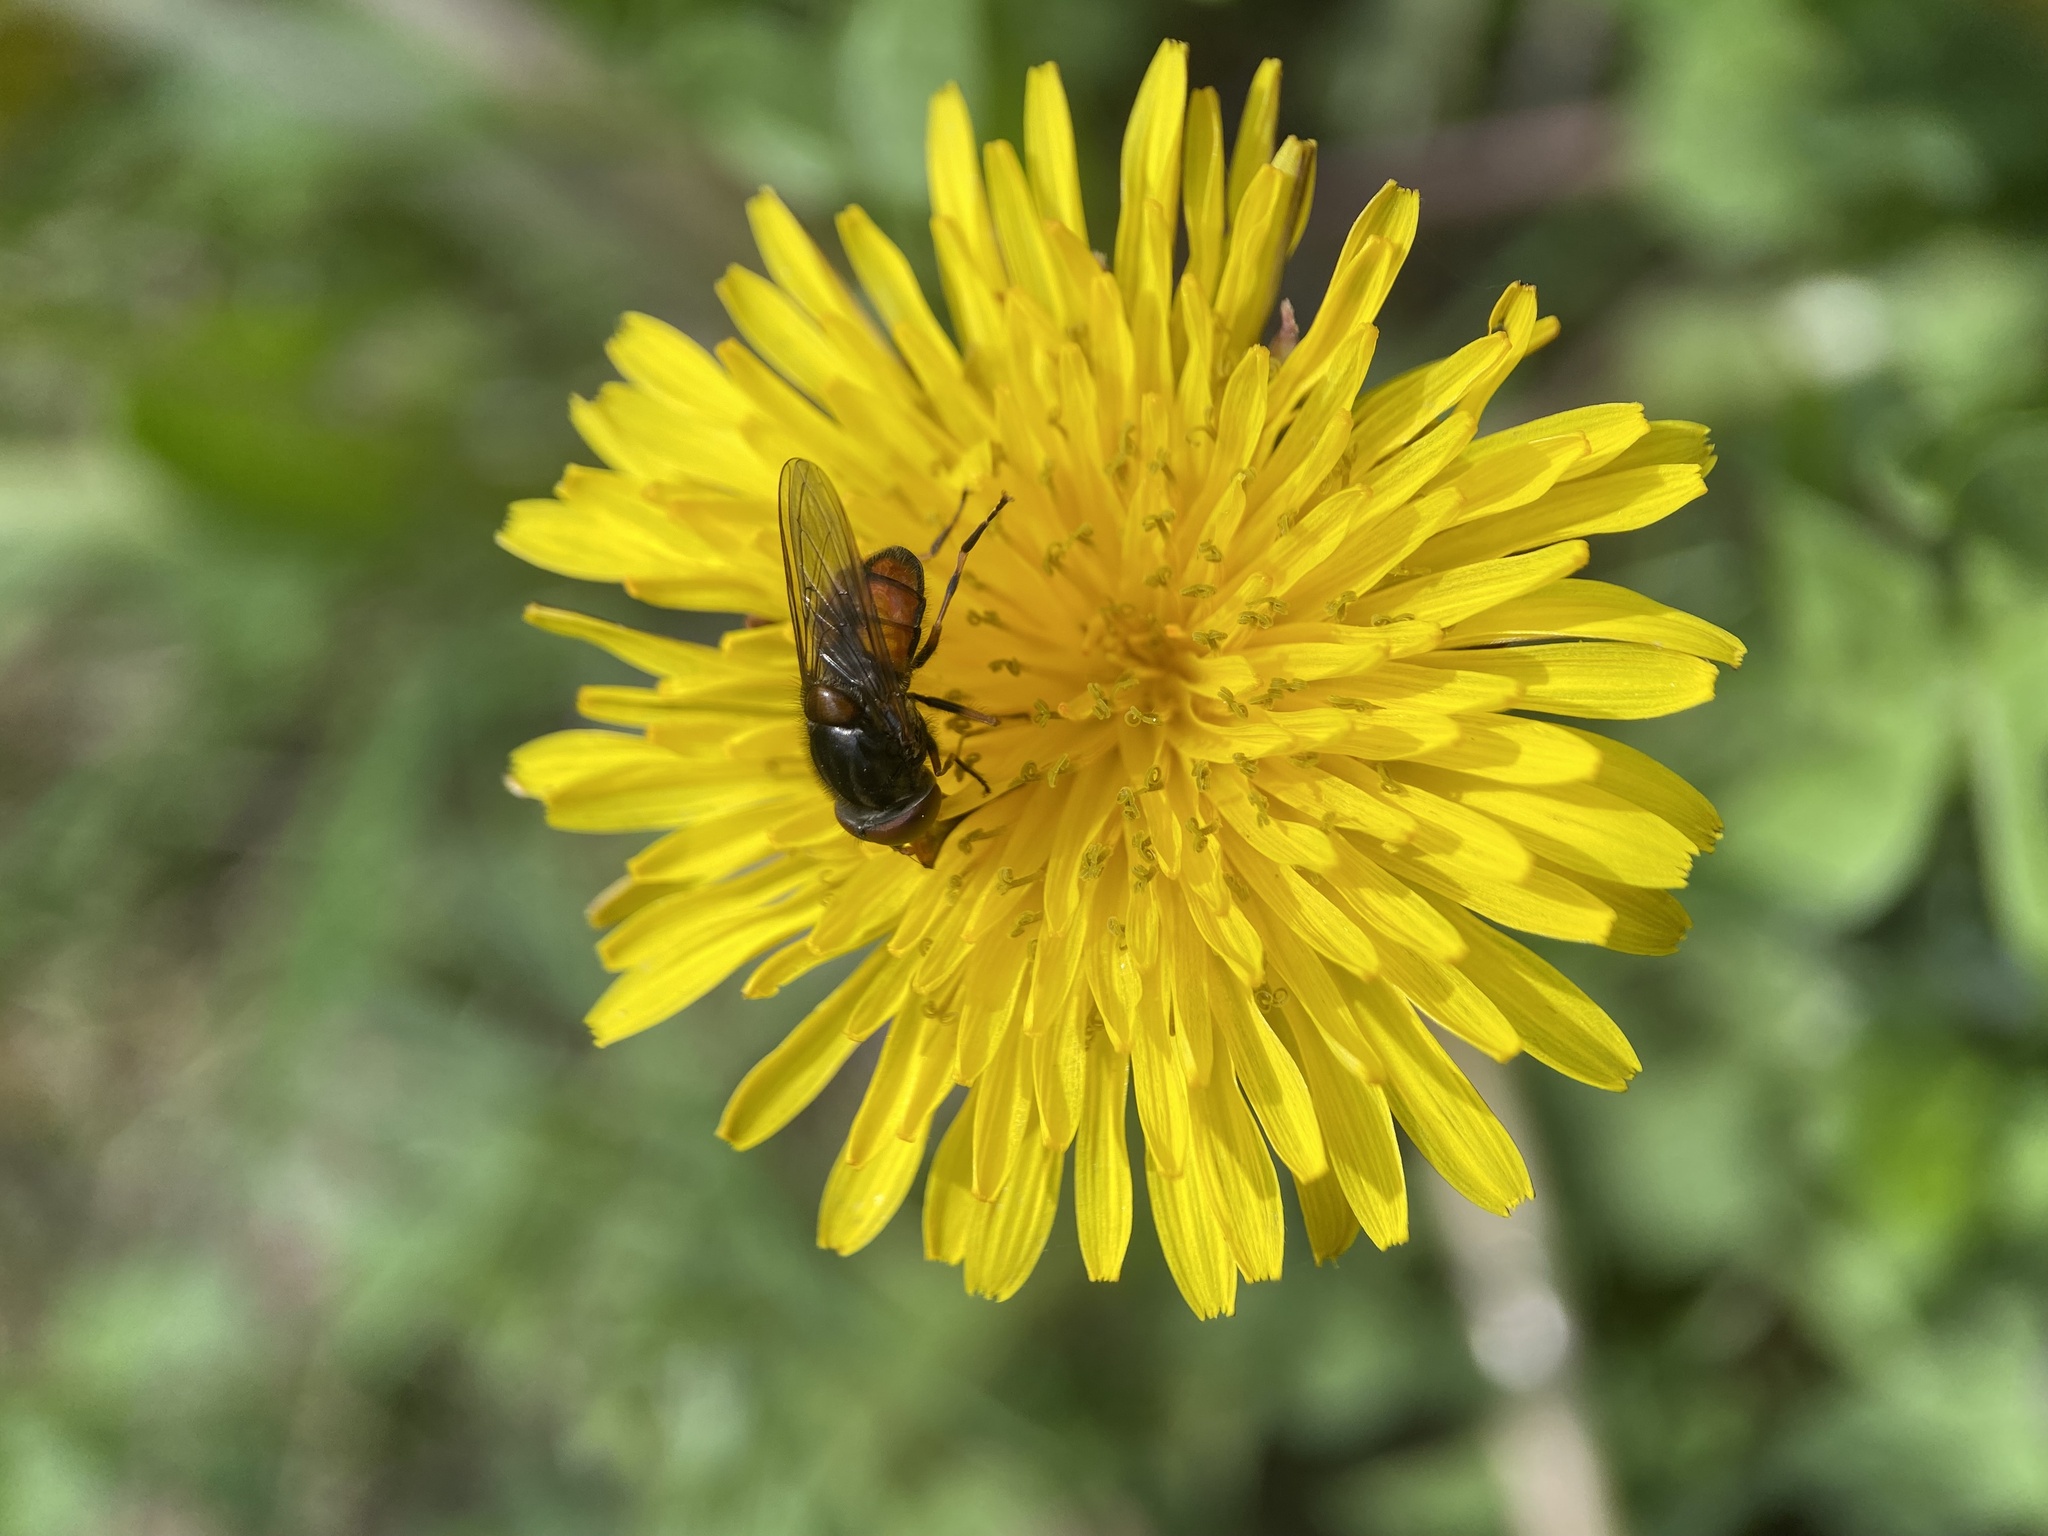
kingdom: Animalia
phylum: Arthropoda
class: Insecta
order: Diptera
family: Syrphidae
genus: Rhingia
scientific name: Rhingia campestris
